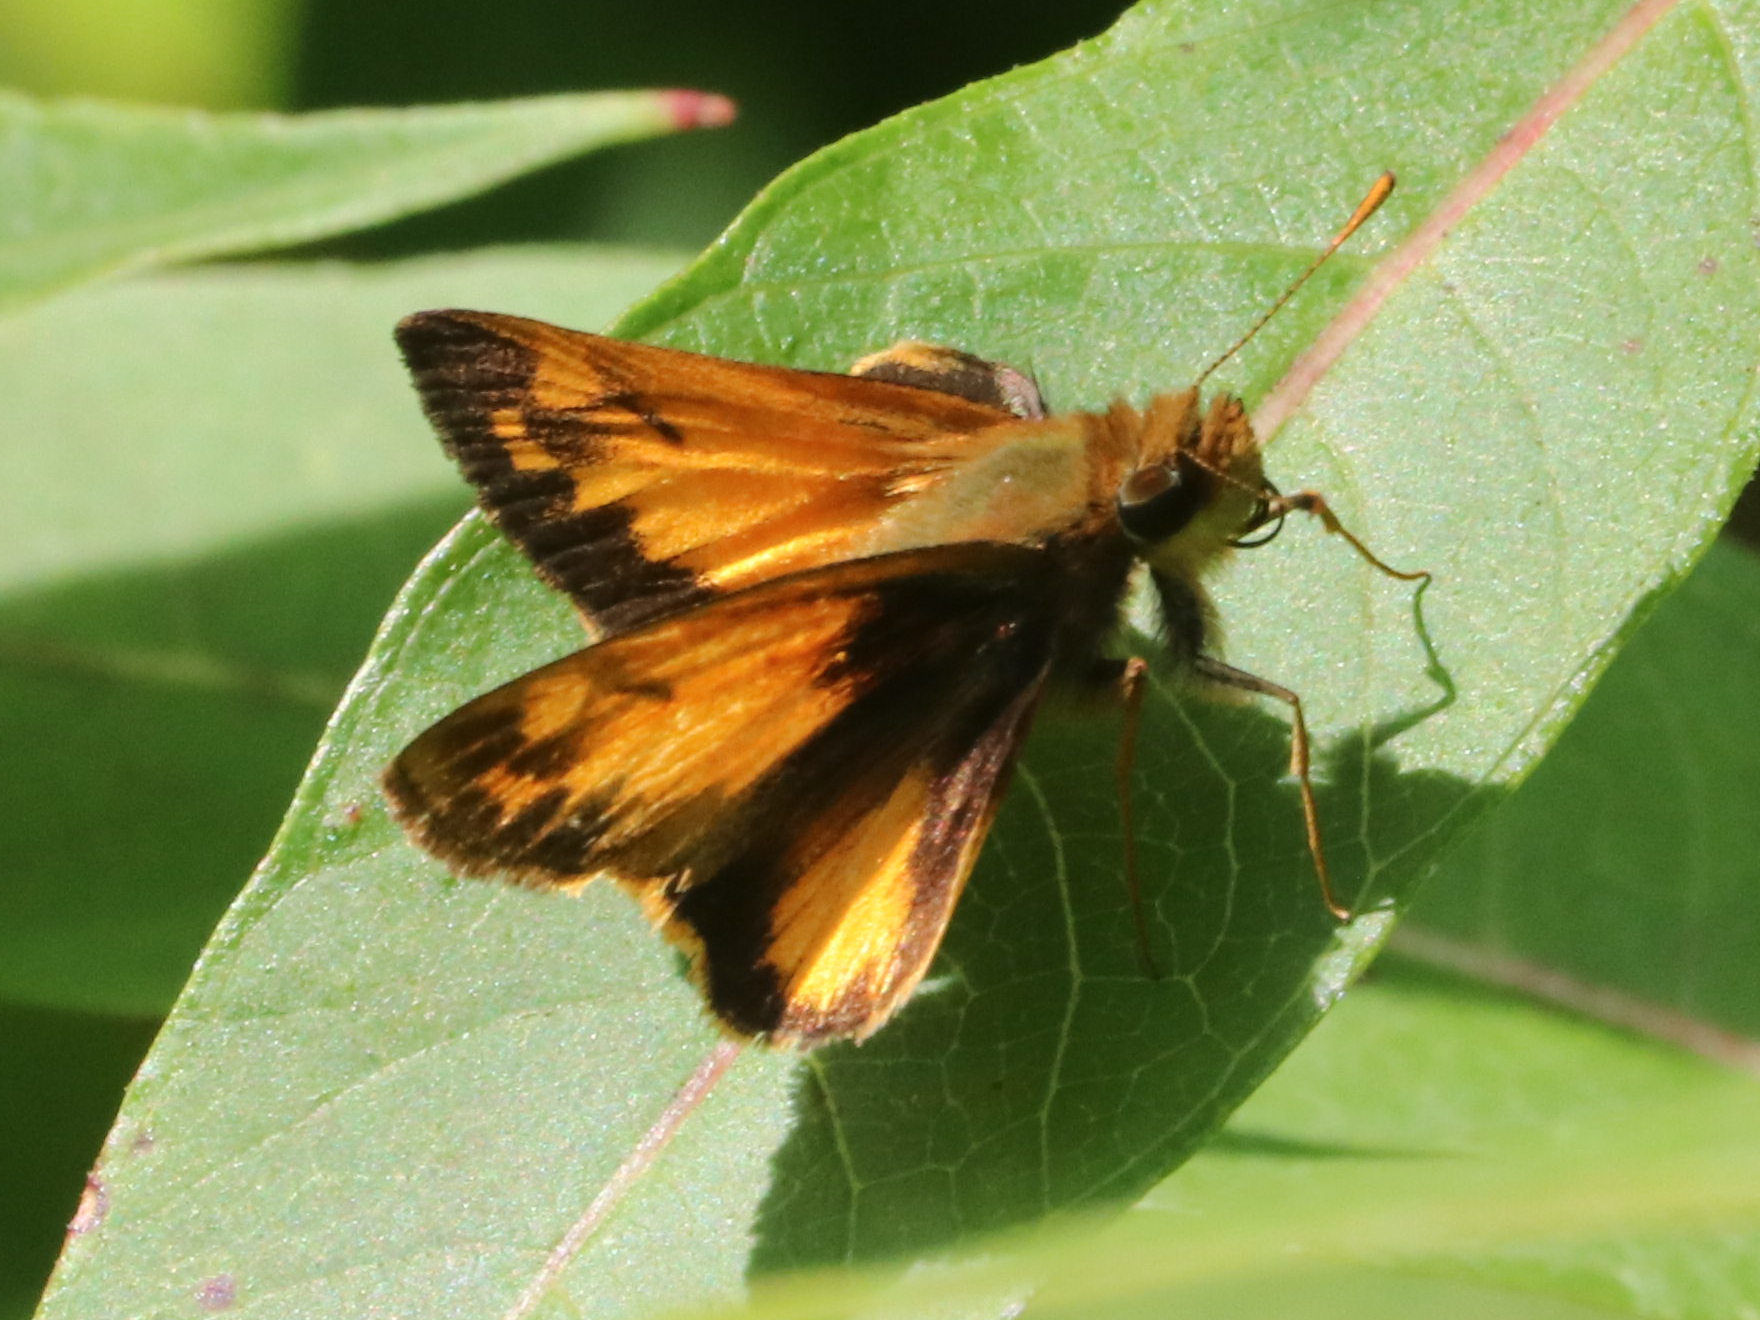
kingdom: Animalia
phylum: Arthropoda
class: Insecta
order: Lepidoptera
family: Hesperiidae
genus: Lon
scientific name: Lon zabulon
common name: Zabulon skipper
